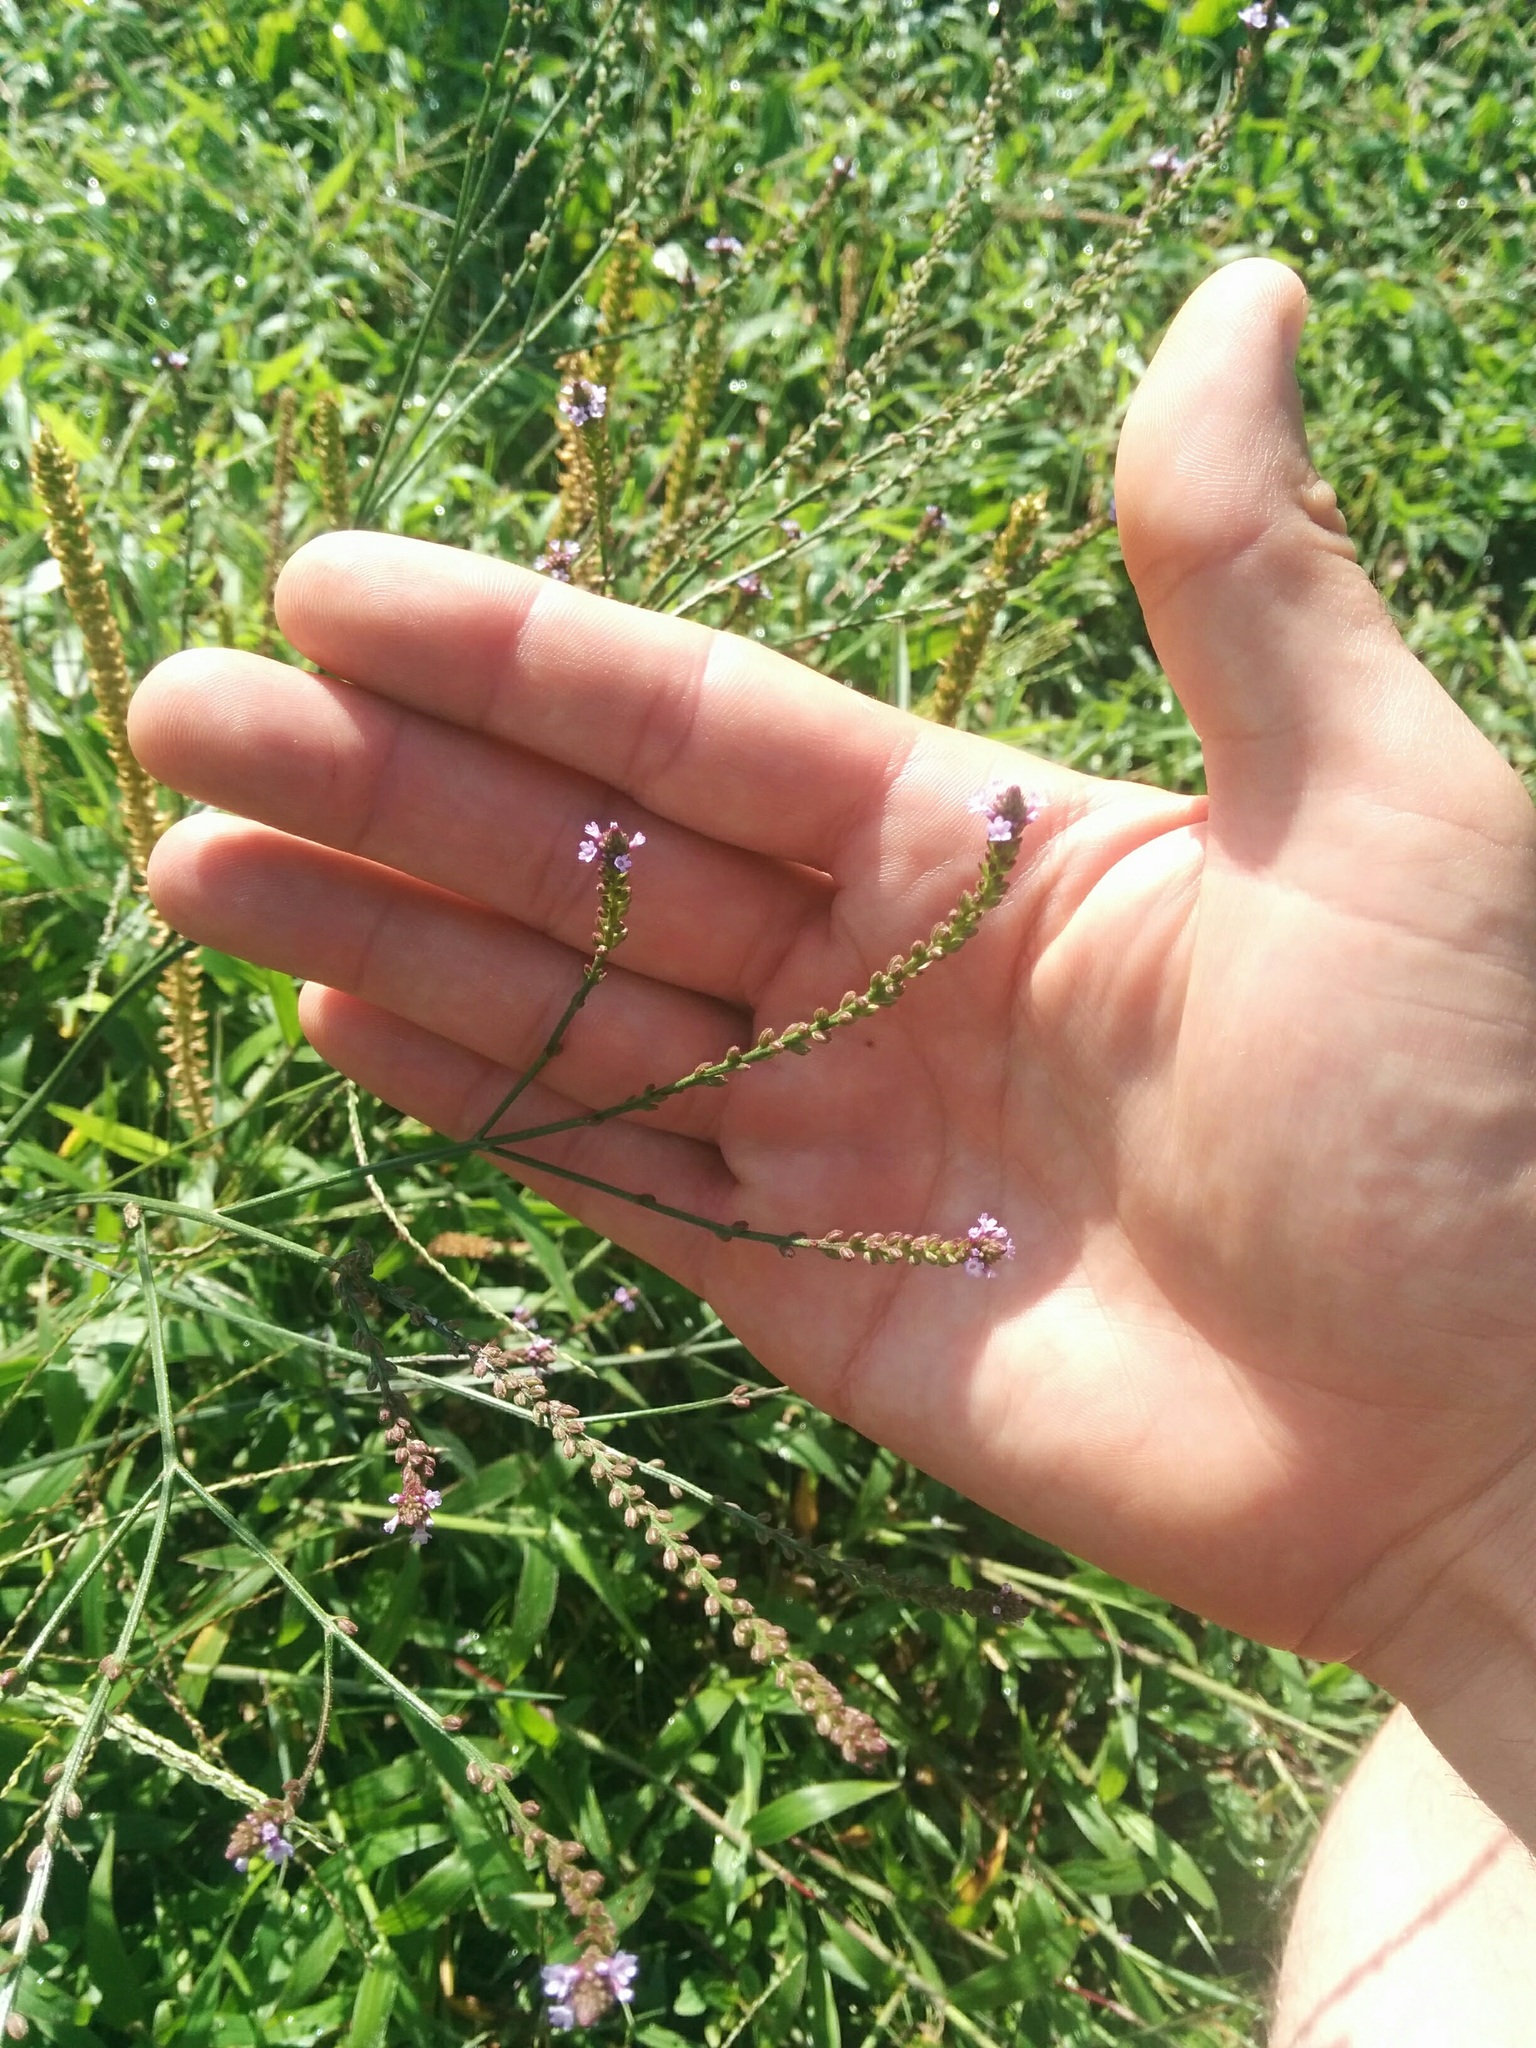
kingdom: Plantae
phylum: Tracheophyta
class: Magnoliopsida
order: Lamiales
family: Verbenaceae
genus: Verbena
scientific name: Verbena litoralis
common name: Seashore vervain
